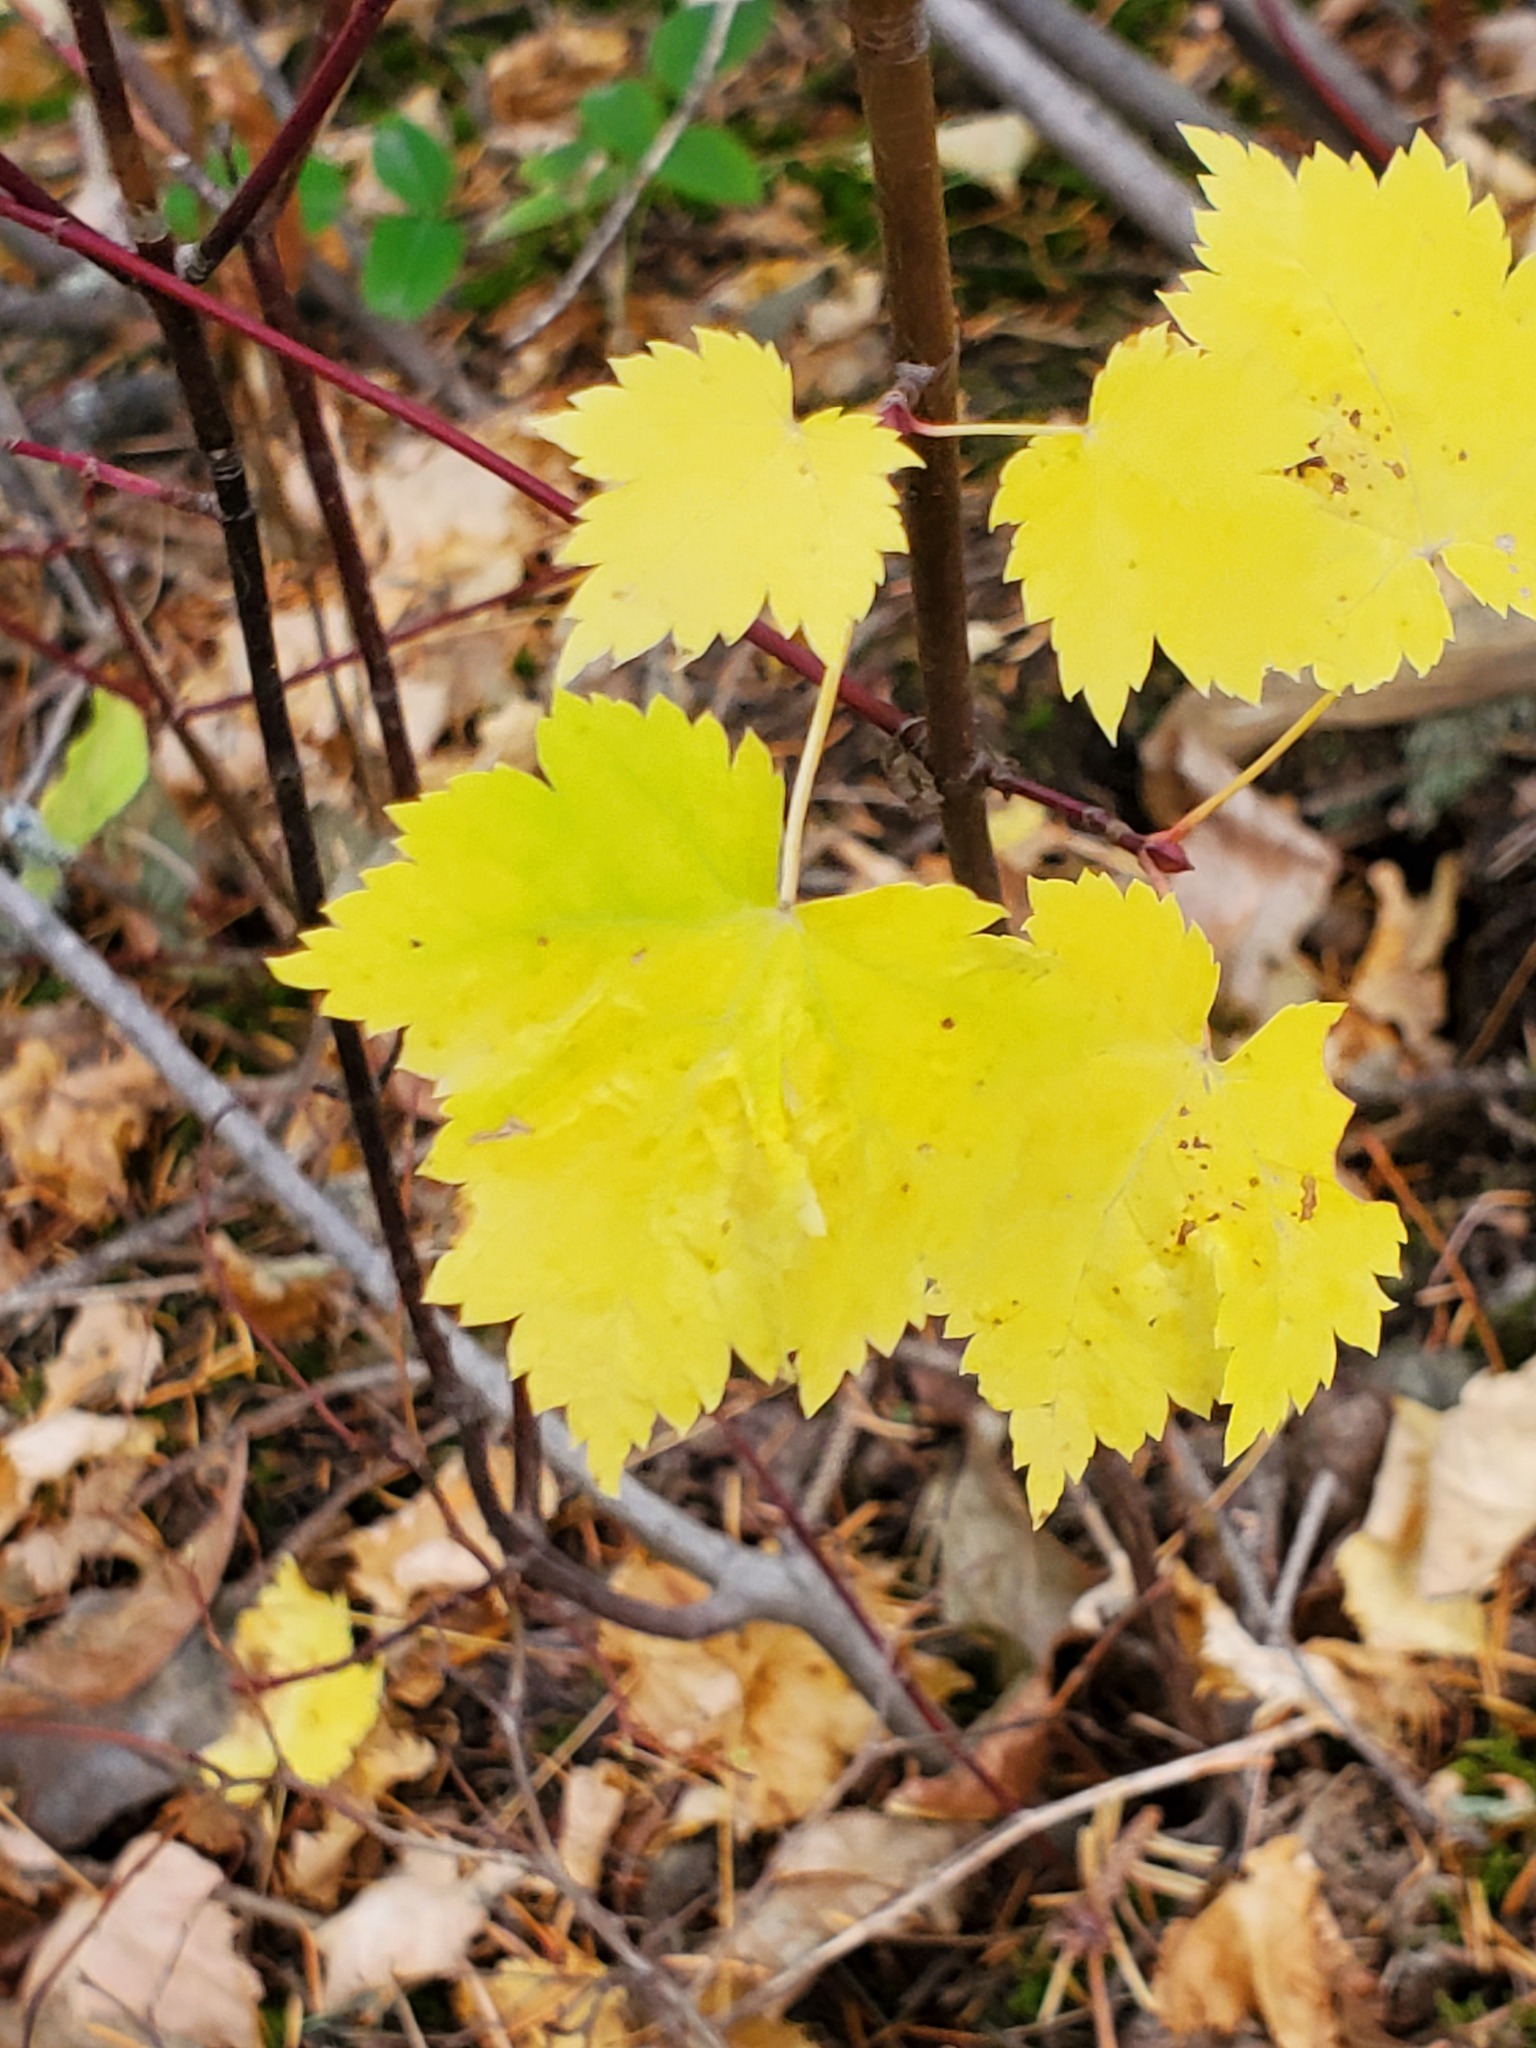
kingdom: Plantae
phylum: Tracheophyta
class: Magnoliopsida
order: Sapindales
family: Sapindaceae
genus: Acer
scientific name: Acer glabrum
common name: Rocky mountain maple
